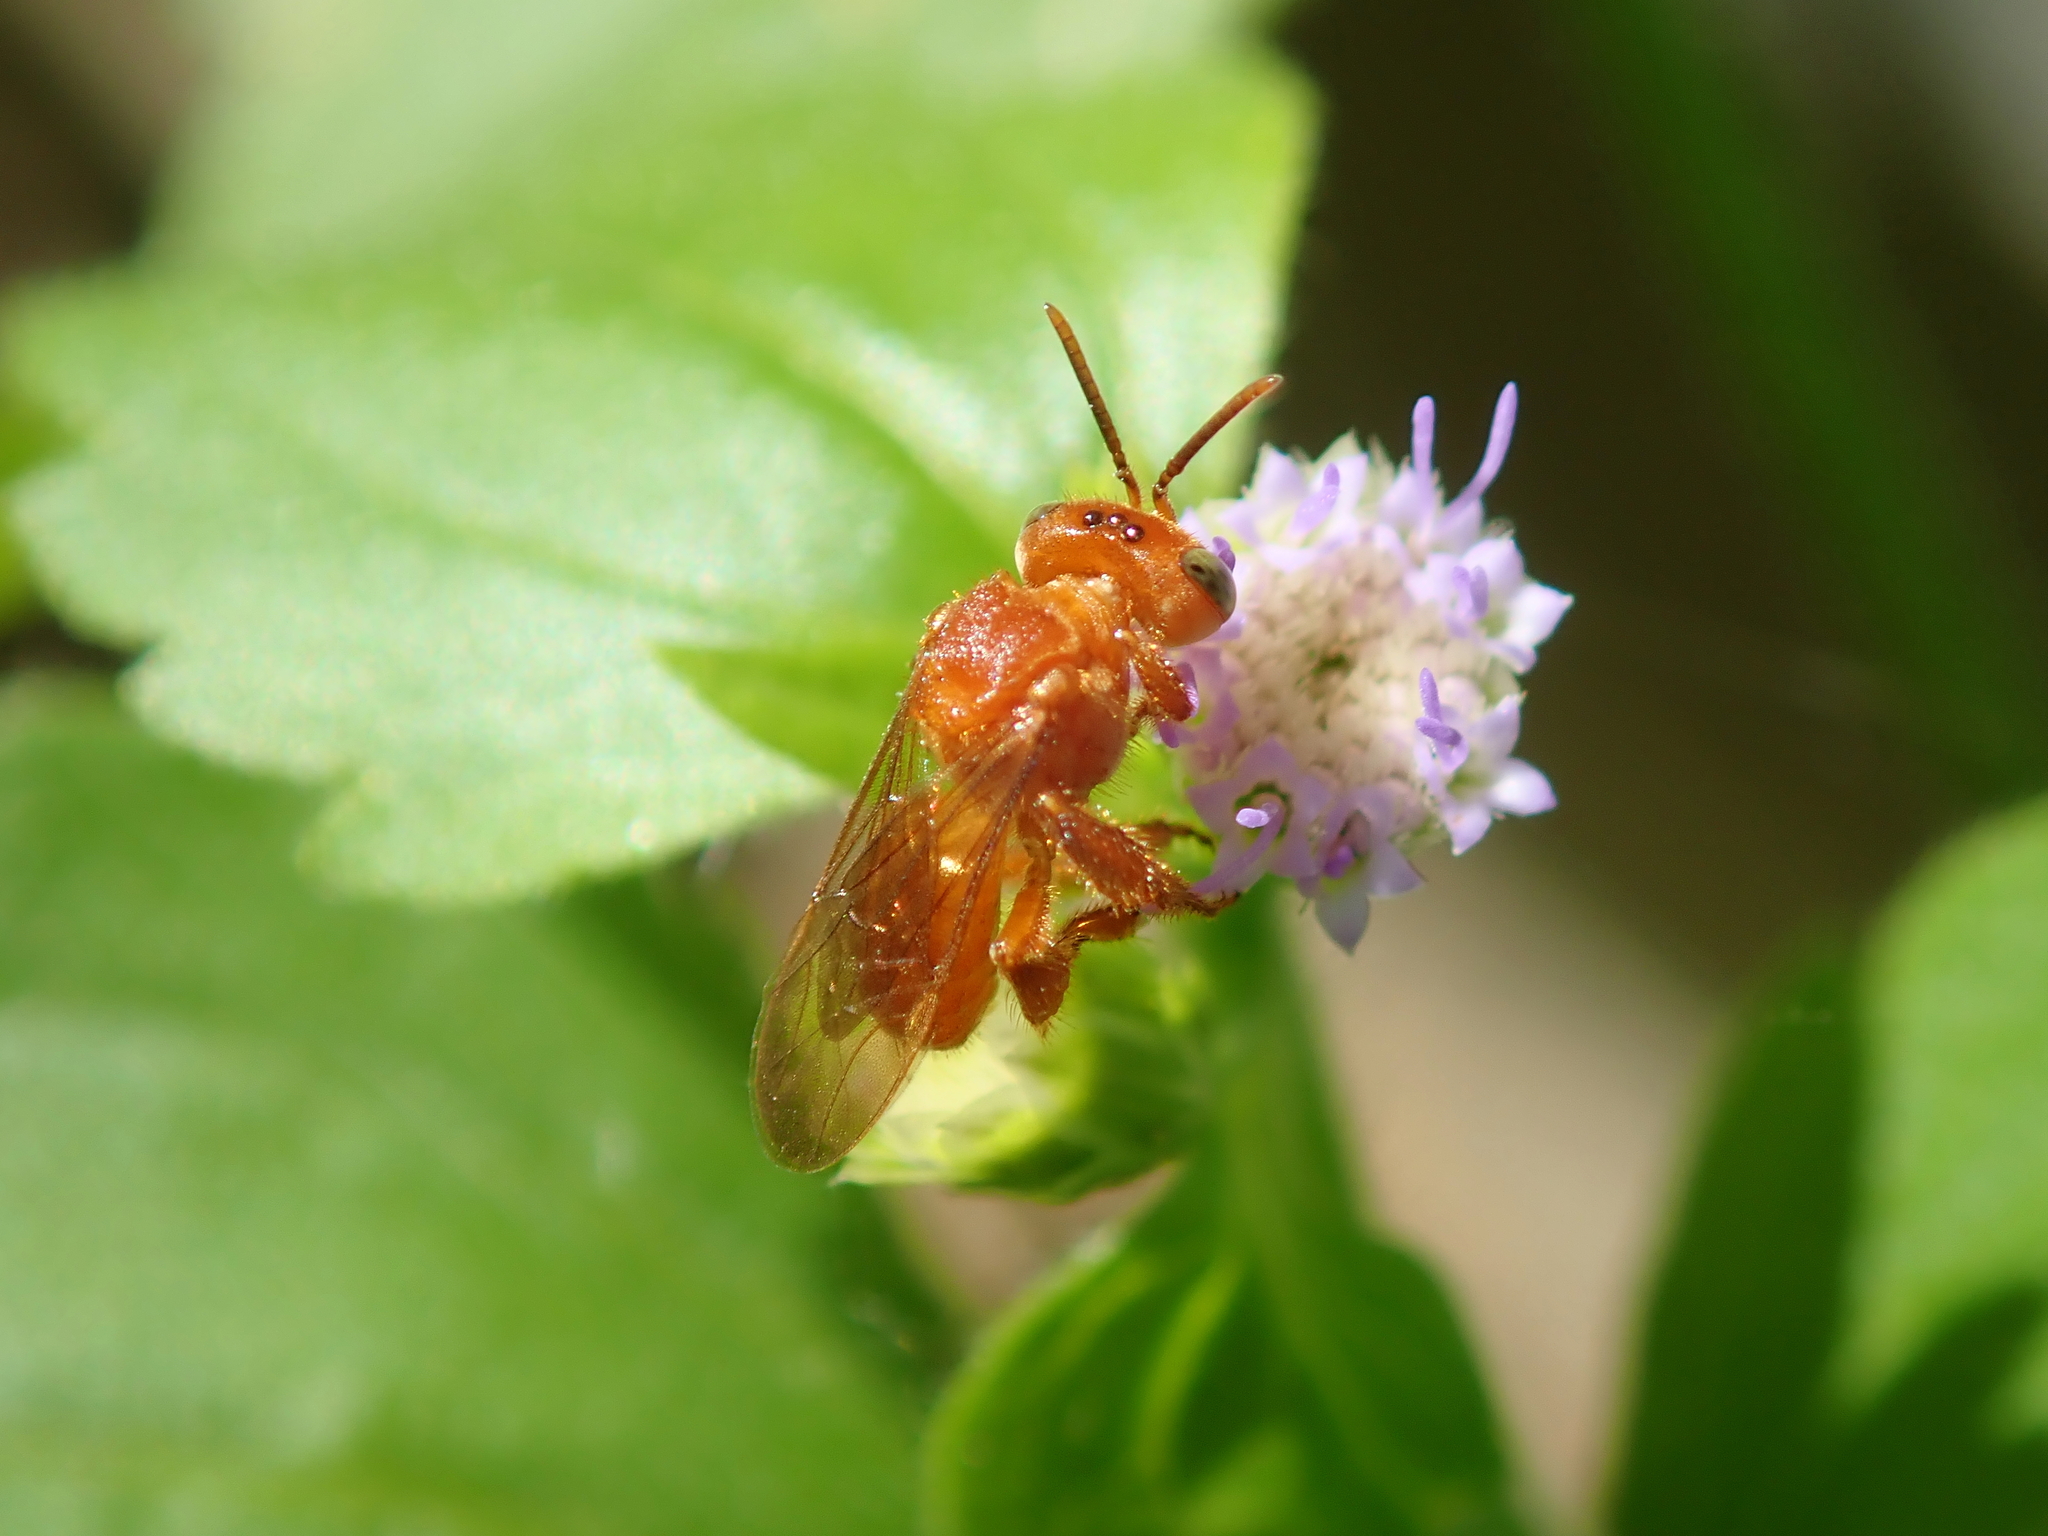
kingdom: Animalia
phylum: Arthropoda
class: Insecta
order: Hymenoptera
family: Apidae
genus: Trigona
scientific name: Trigona pallens
